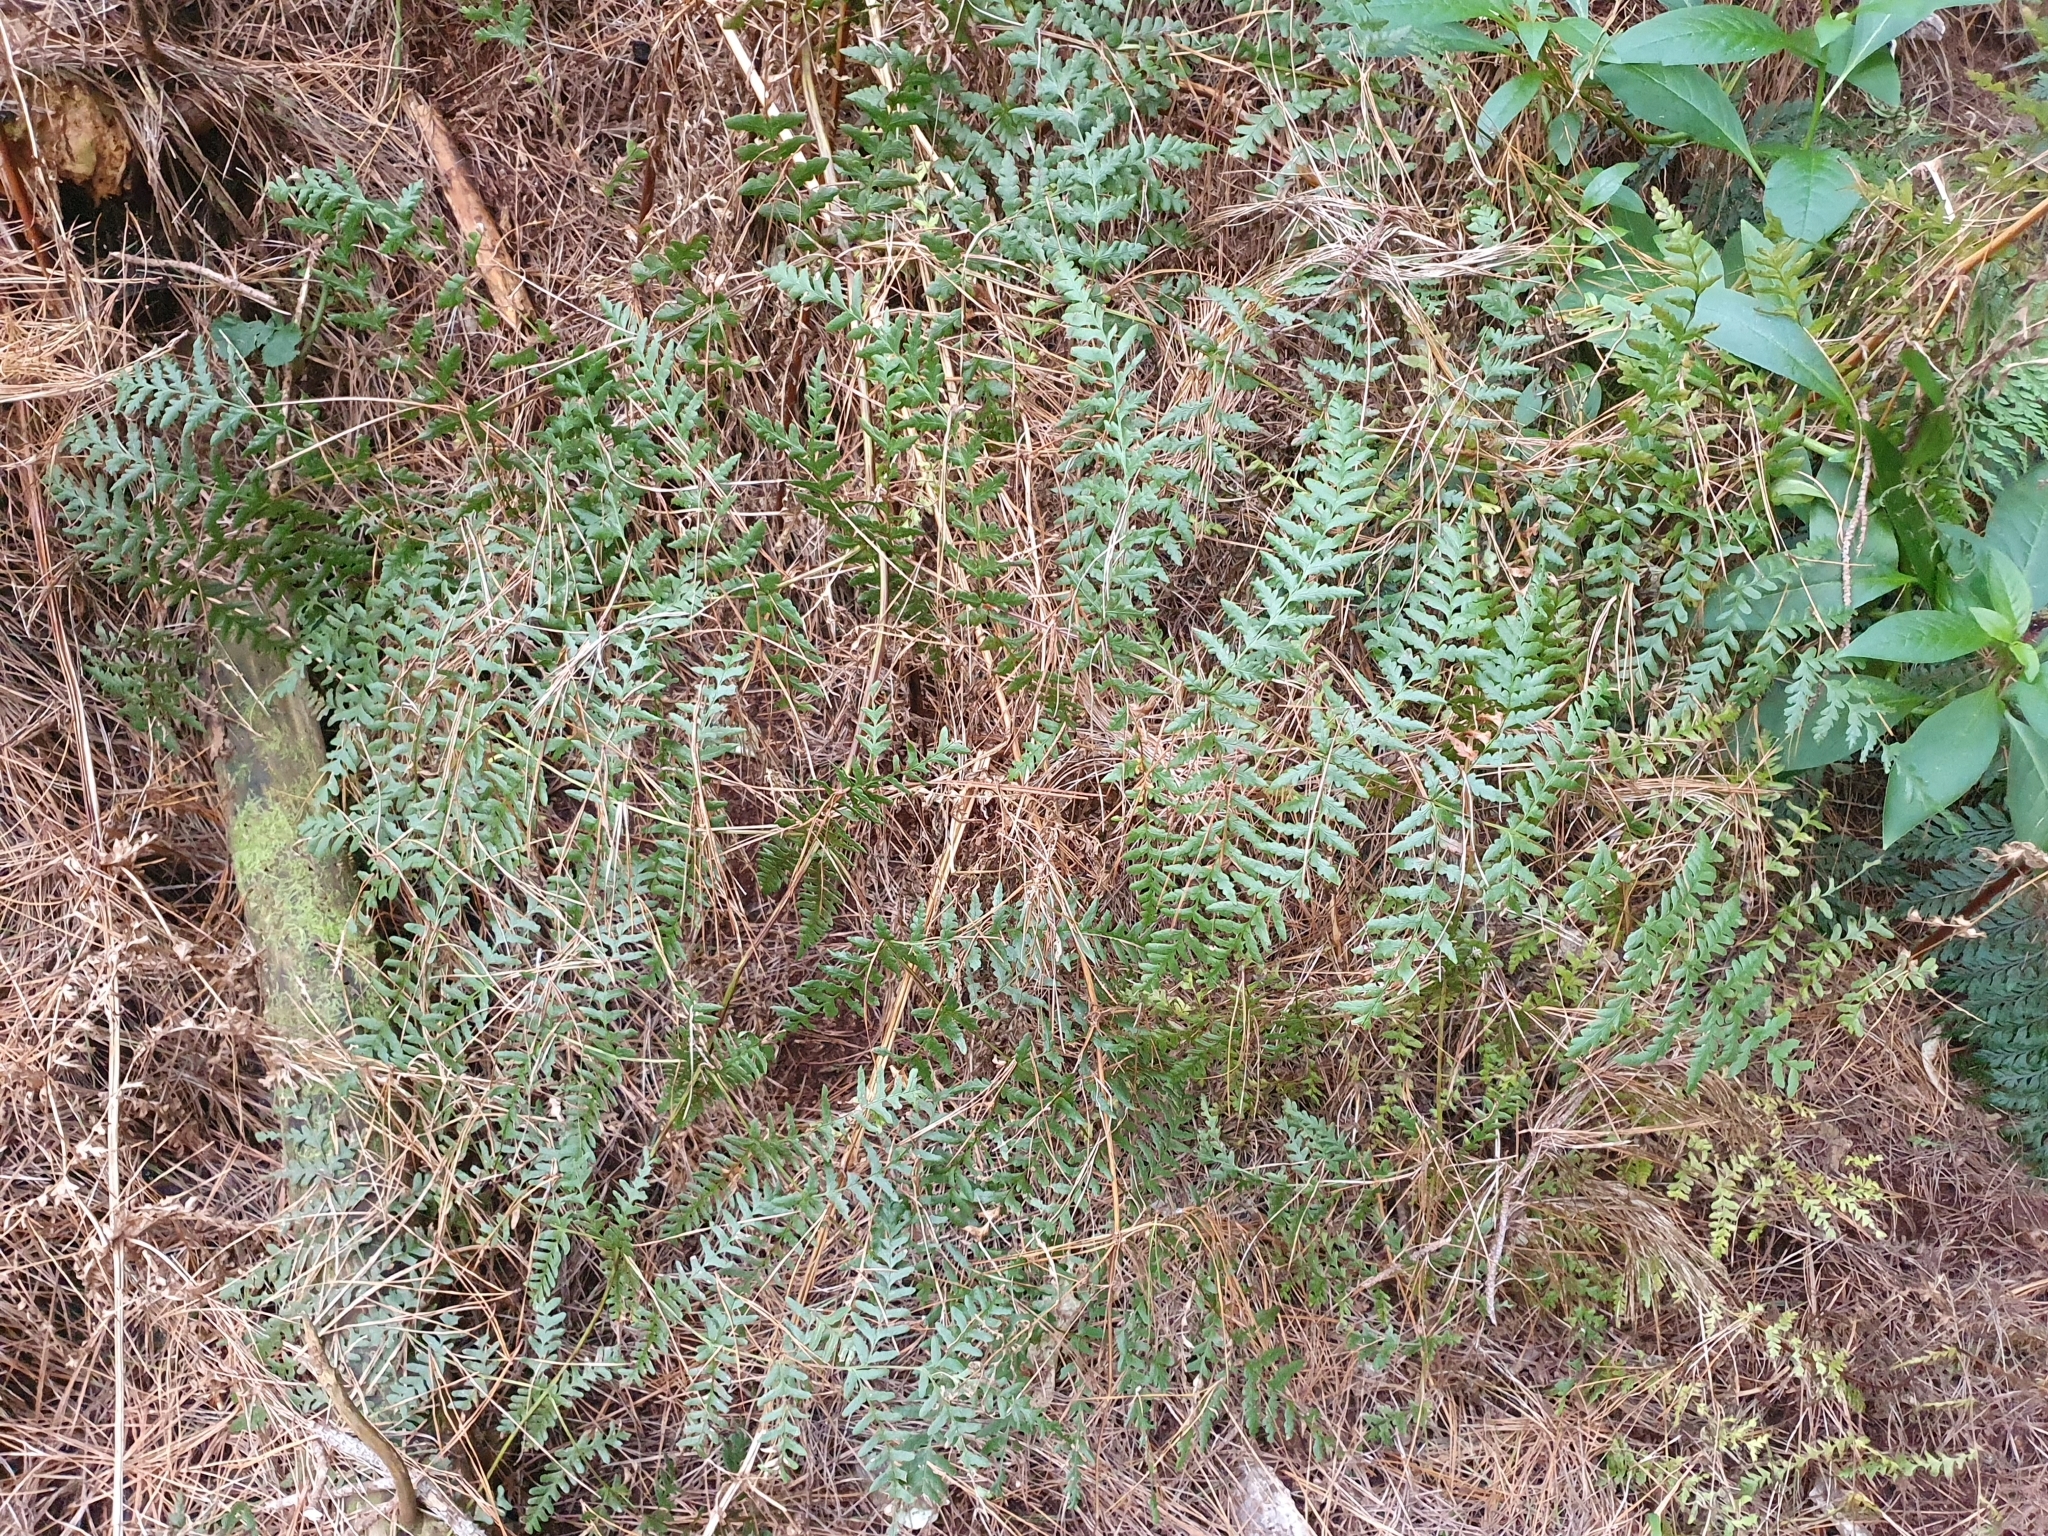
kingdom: Plantae
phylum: Tracheophyta
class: Polypodiopsida
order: Polypodiales
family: Dennstaedtiaceae
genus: Pteridium
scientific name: Pteridium esculentum
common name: Bracken fern
